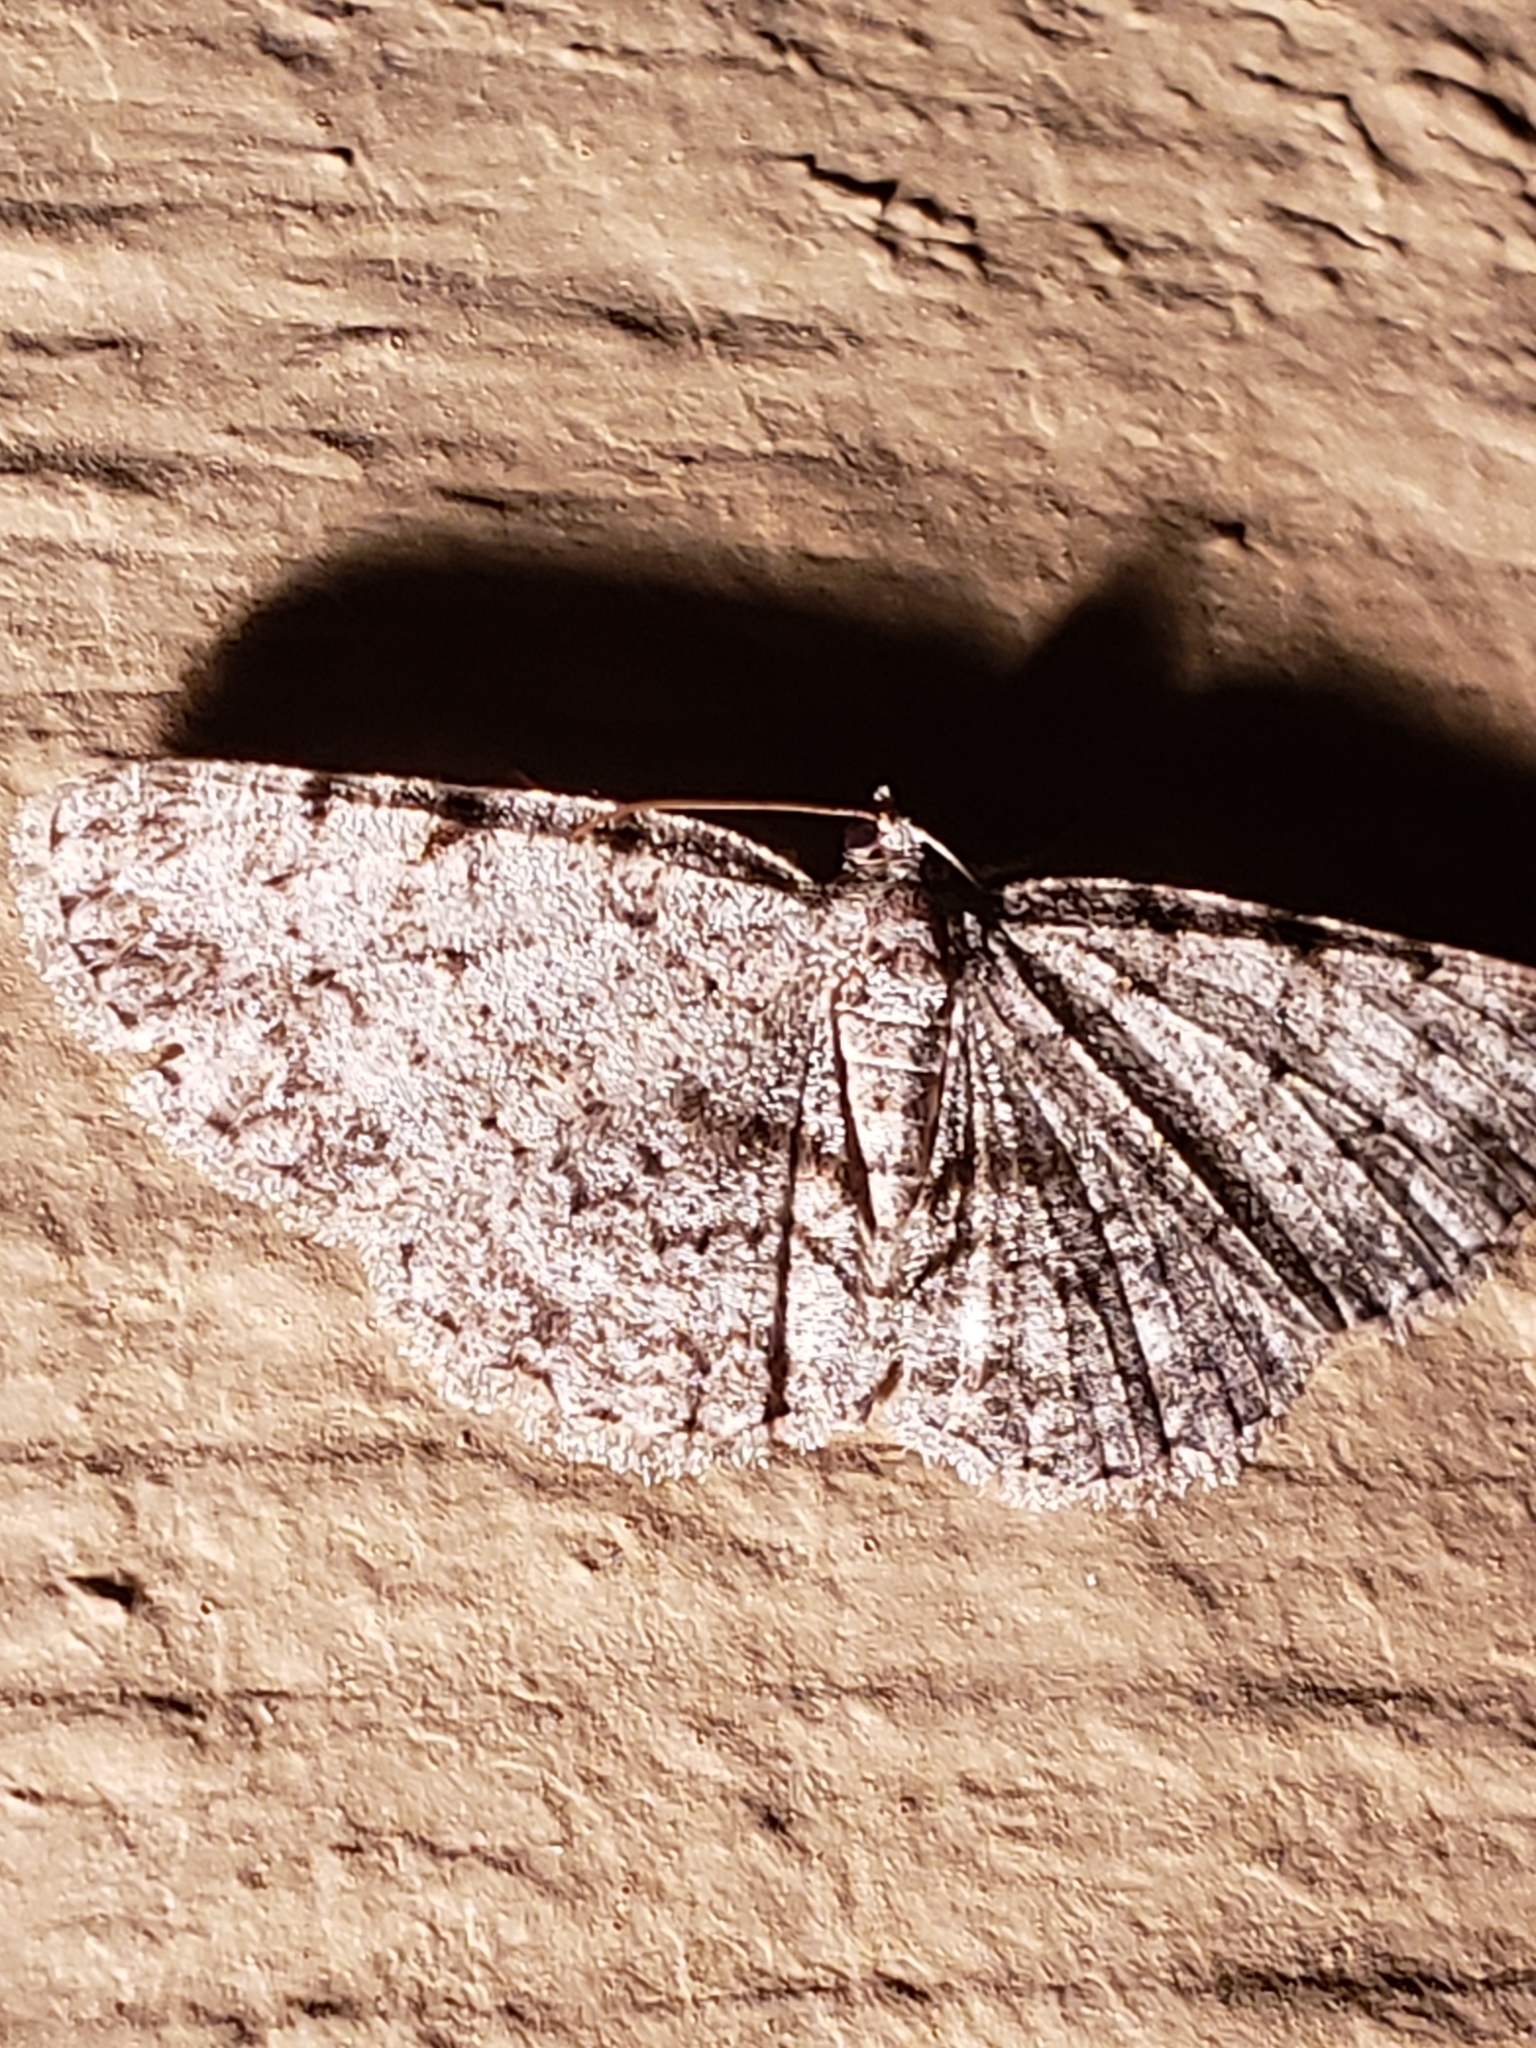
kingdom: Animalia
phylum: Arthropoda
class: Insecta
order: Lepidoptera
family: Geometridae
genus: Protoboarmia
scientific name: Protoboarmia porcelaria
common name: Porcelain gray
